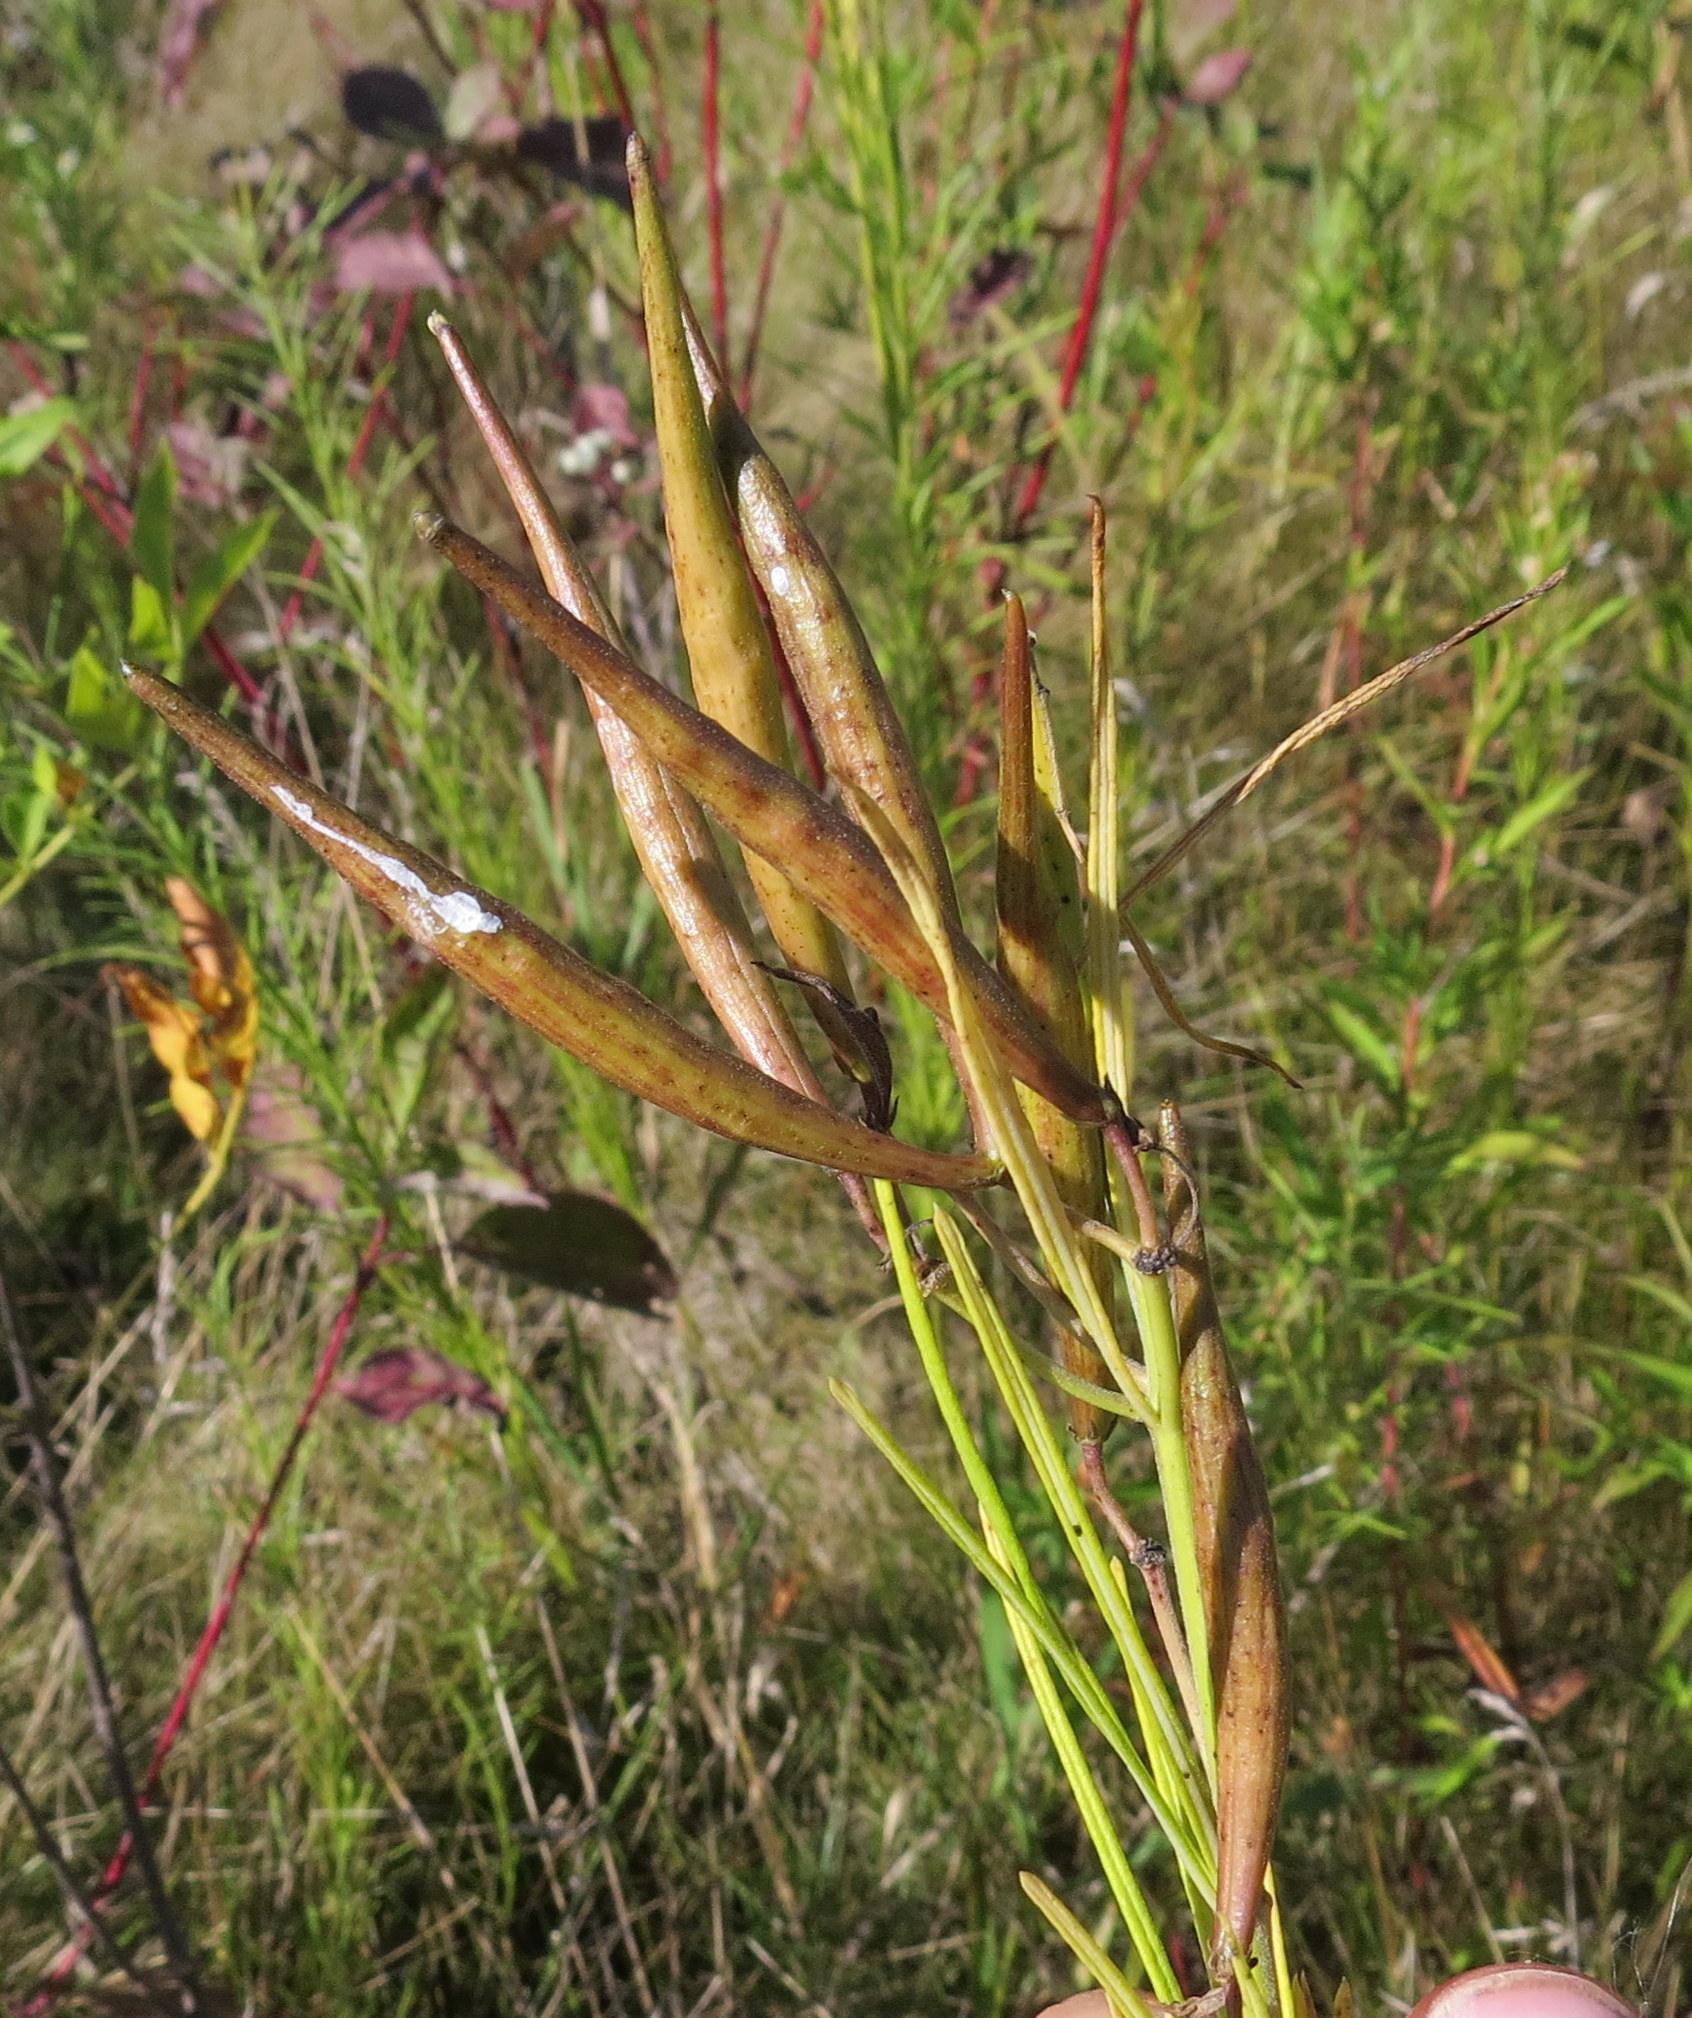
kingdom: Plantae
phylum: Tracheophyta
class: Magnoliopsida
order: Gentianales
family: Apocynaceae
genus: Asclepias
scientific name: Asclepias verticillata
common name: Eastern whorled milkweed
